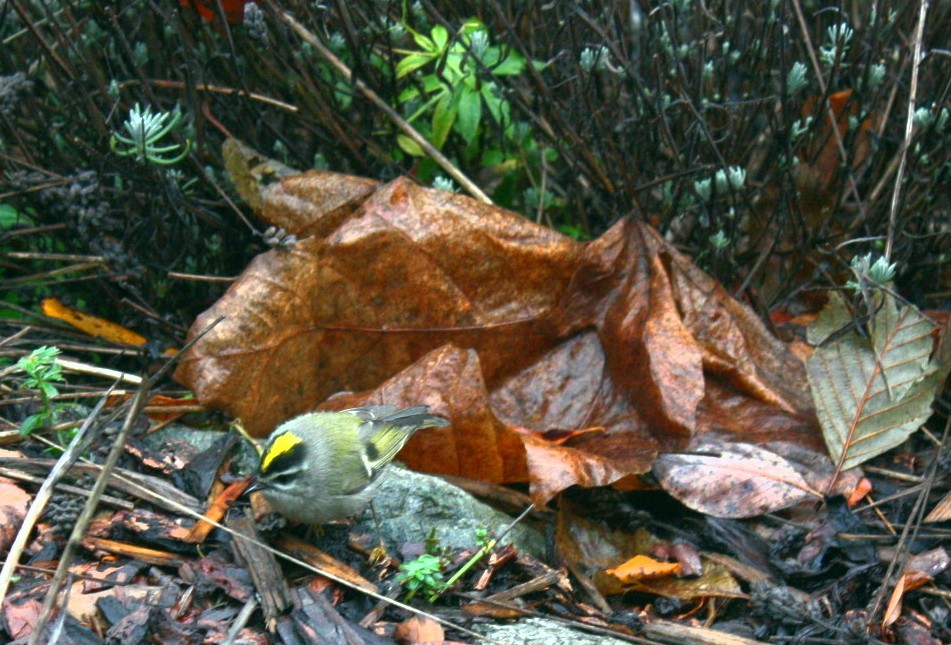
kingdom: Animalia
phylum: Chordata
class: Aves
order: Passeriformes
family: Regulidae
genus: Regulus
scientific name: Regulus satrapa
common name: Golden-crowned kinglet
